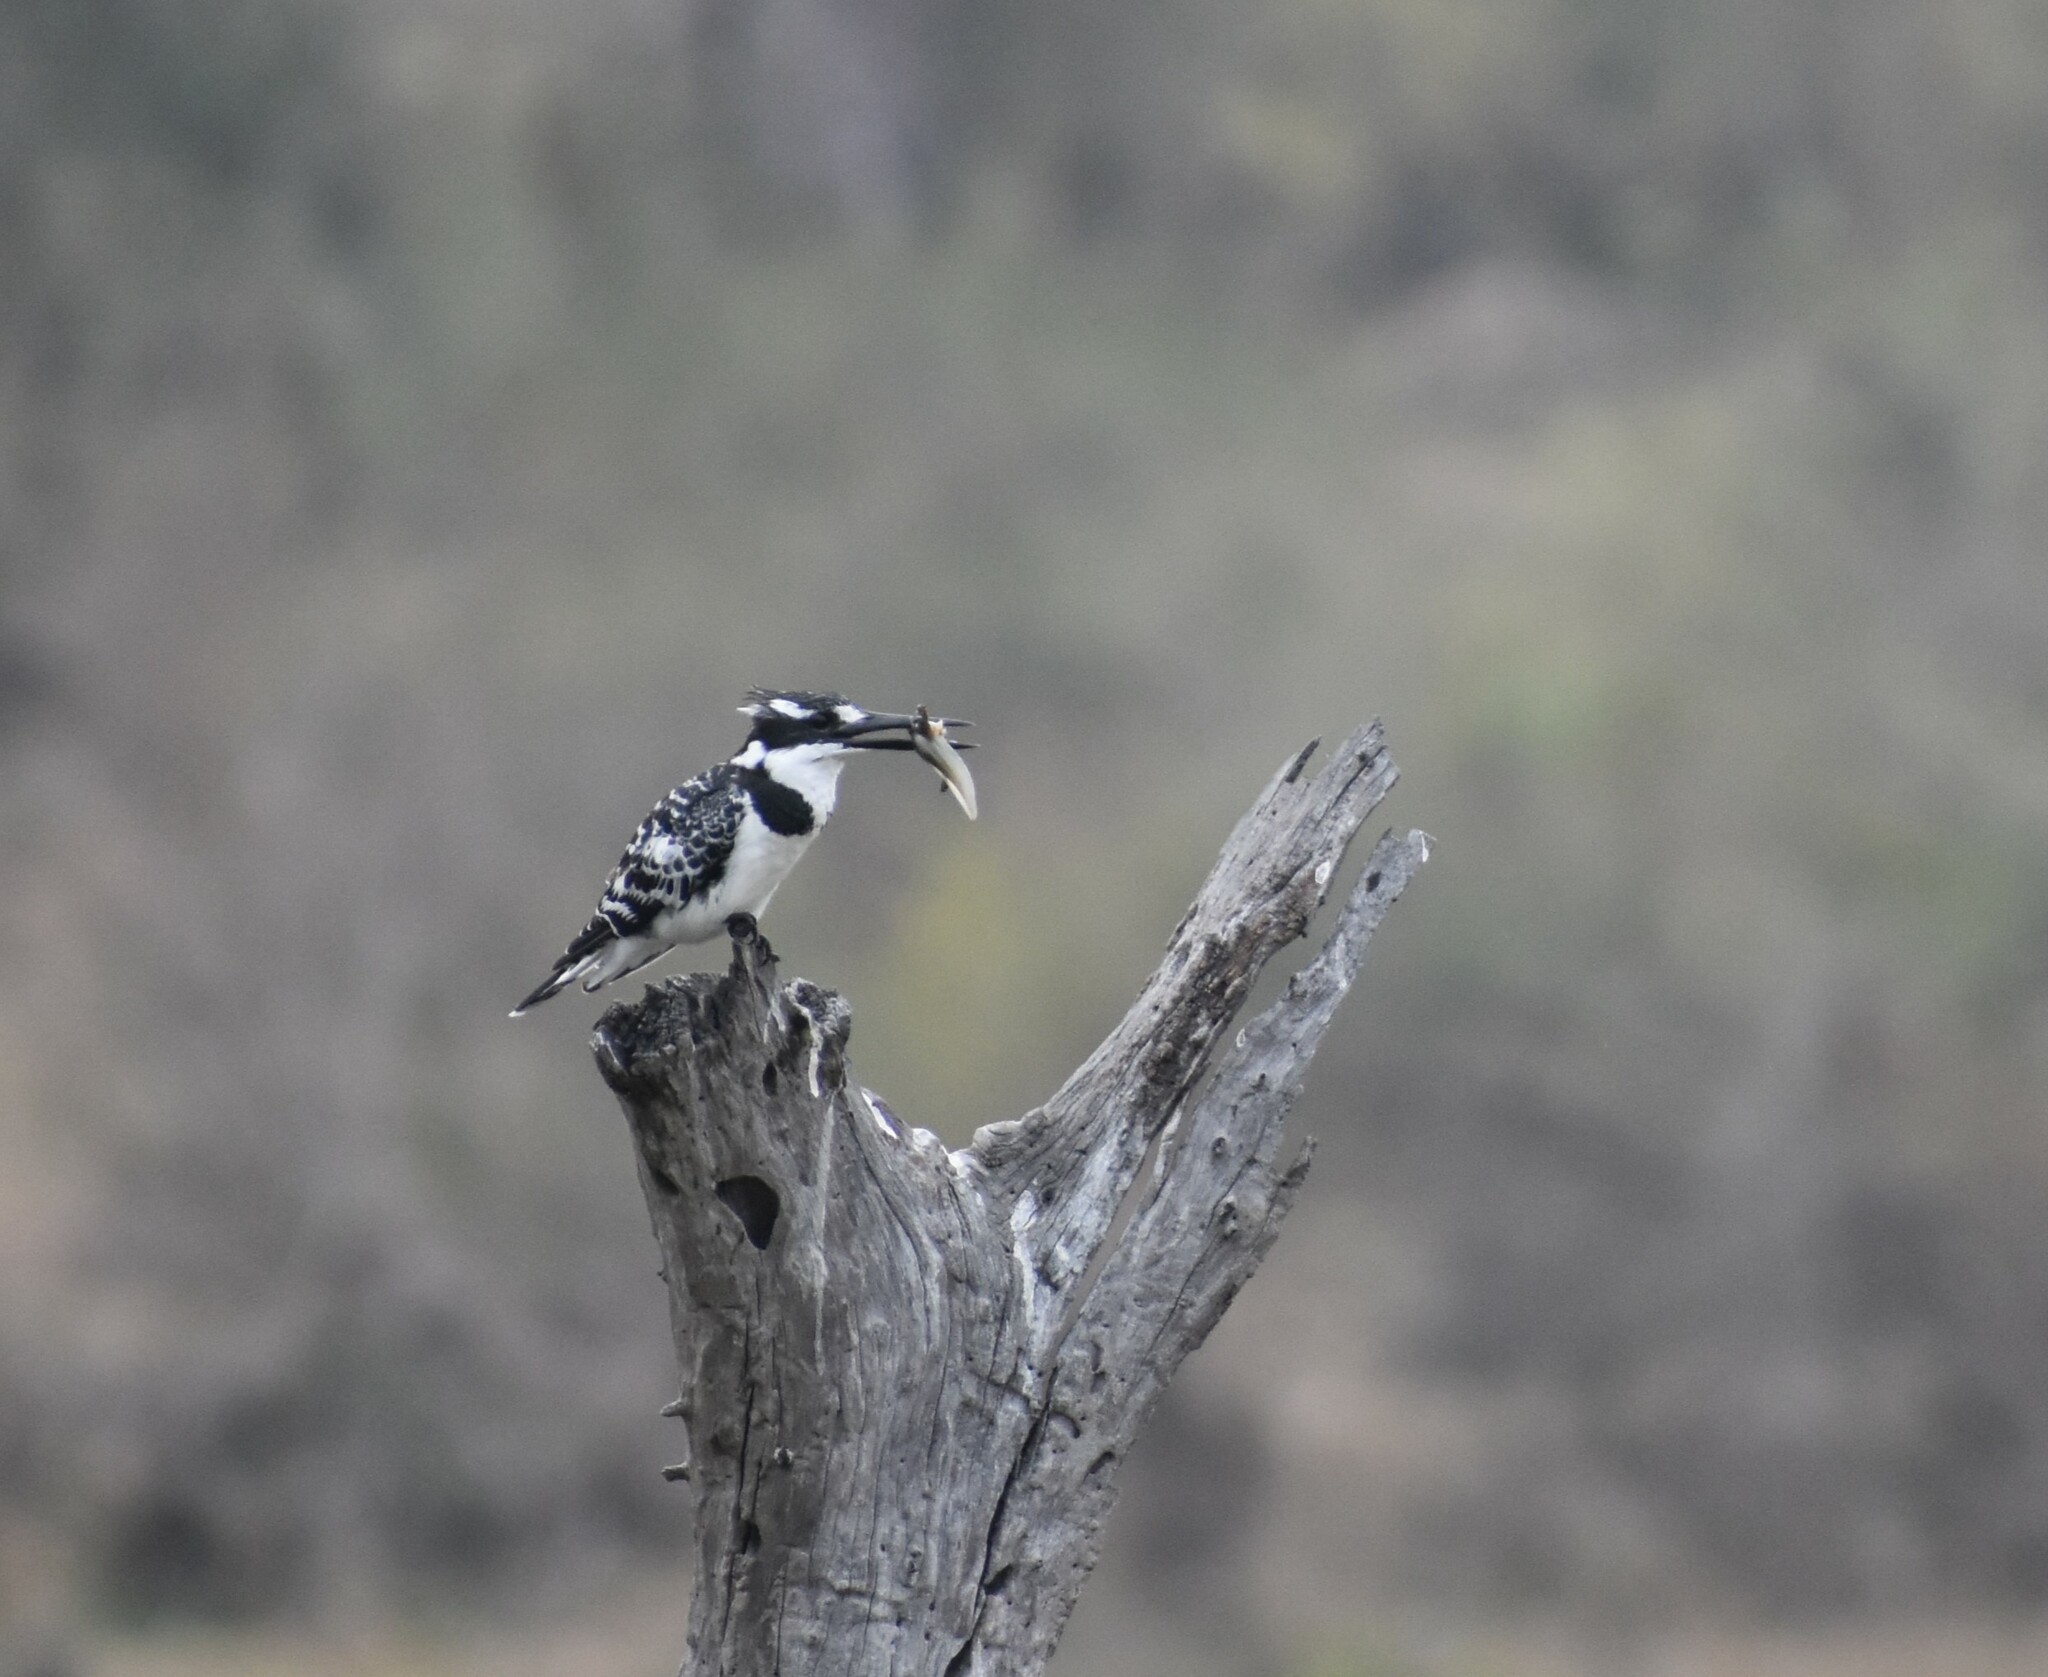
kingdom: Animalia
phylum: Chordata
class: Aves
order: Coraciiformes
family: Alcedinidae
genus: Ceryle
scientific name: Ceryle rudis
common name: Pied kingfisher
